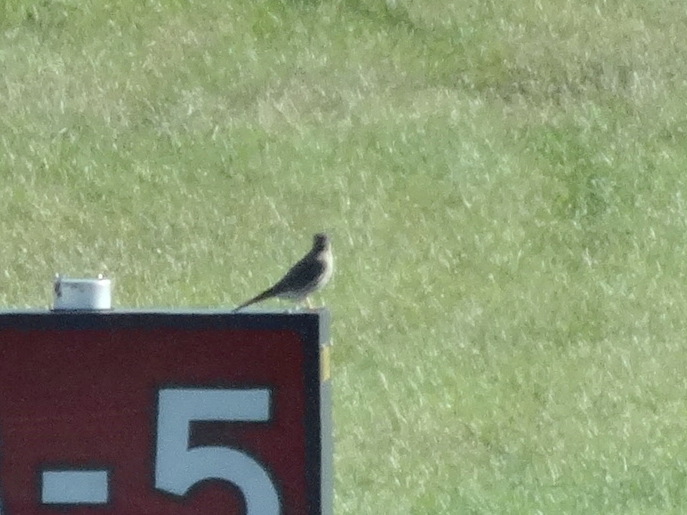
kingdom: Animalia
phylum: Chordata
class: Aves
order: Falconiformes
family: Falconidae
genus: Falco
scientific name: Falco sparverius
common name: American kestrel
